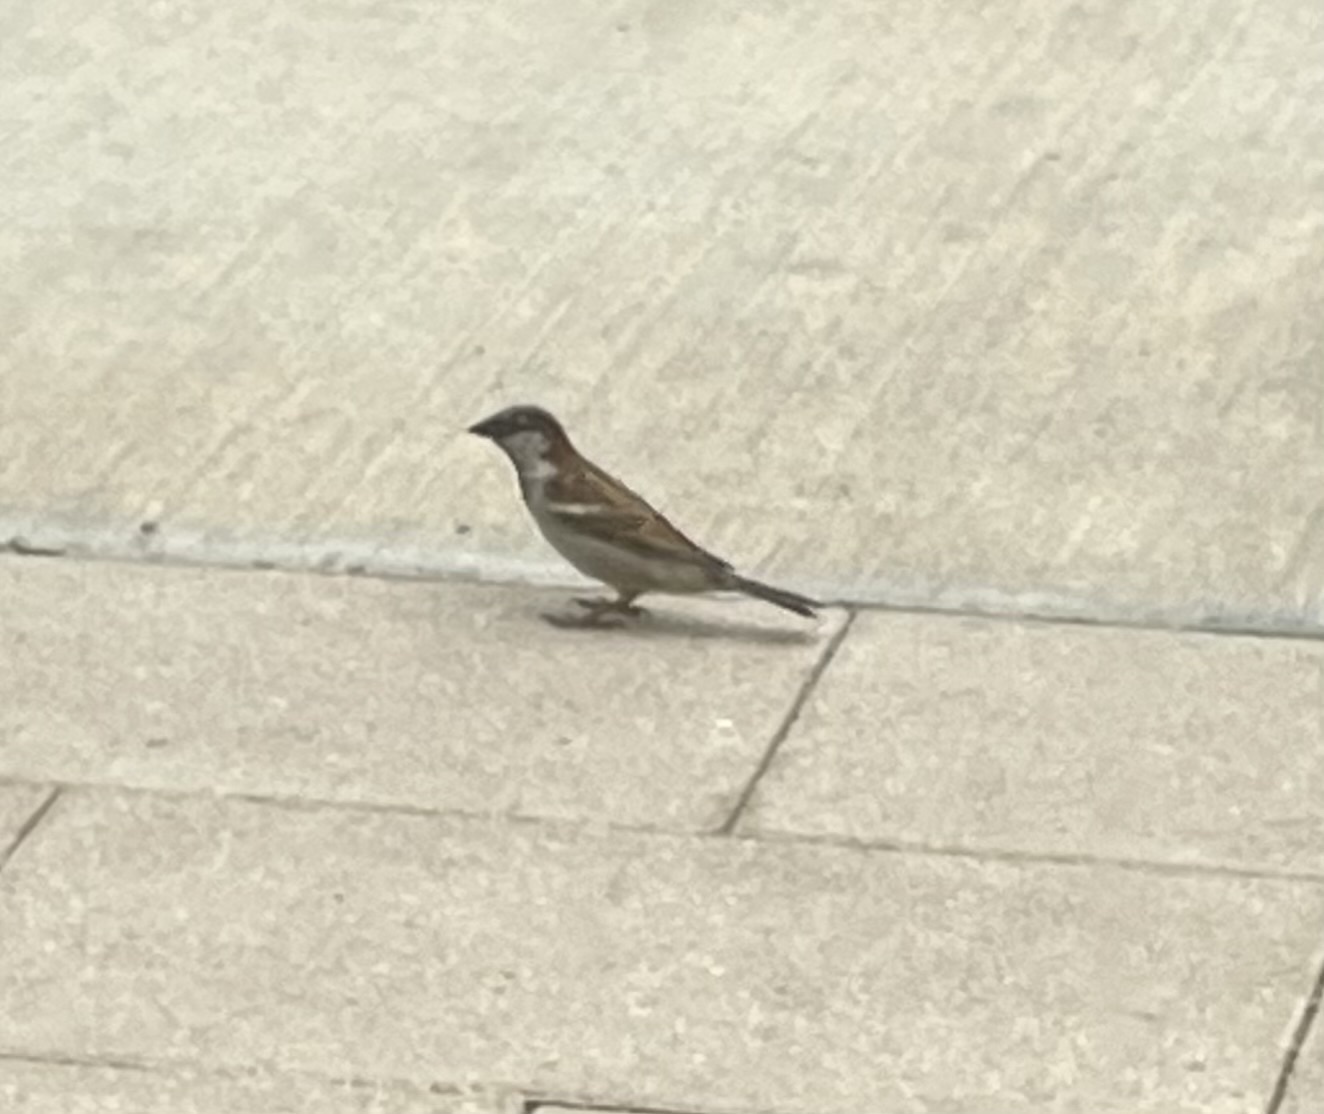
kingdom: Animalia
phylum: Chordata
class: Aves
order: Passeriformes
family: Passeridae
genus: Passer
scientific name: Passer domesticus
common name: House sparrow
